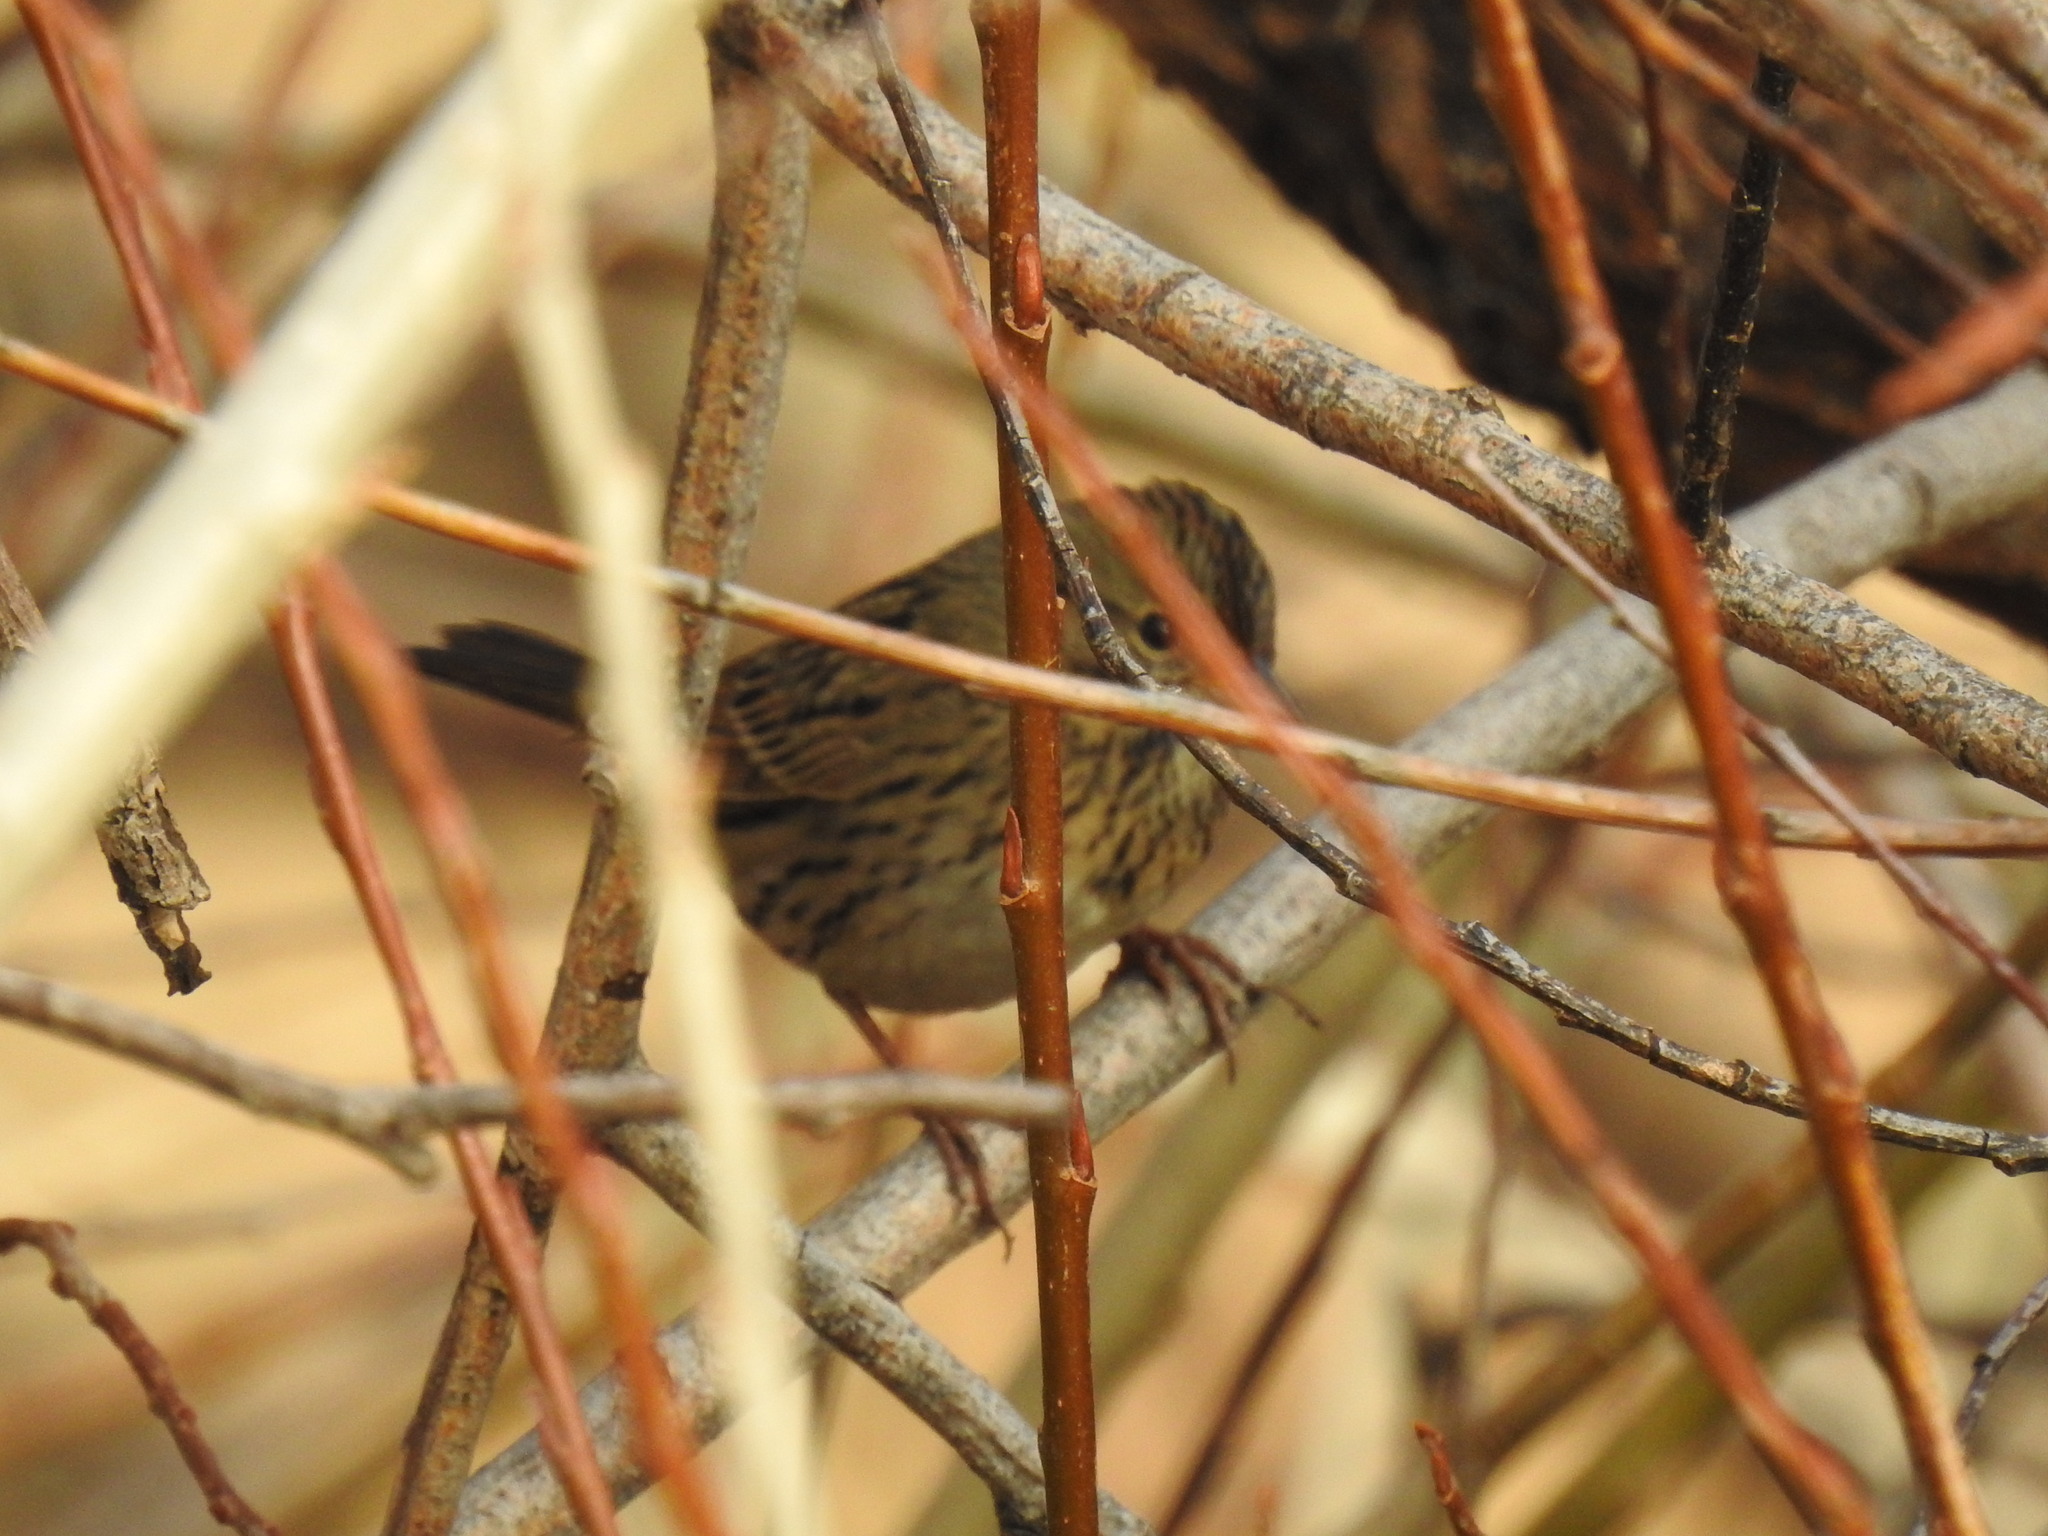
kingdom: Animalia
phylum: Chordata
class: Aves
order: Passeriformes
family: Passerellidae
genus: Melospiza
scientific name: Melospiza lincolnii
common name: Lincoln's sparrow
